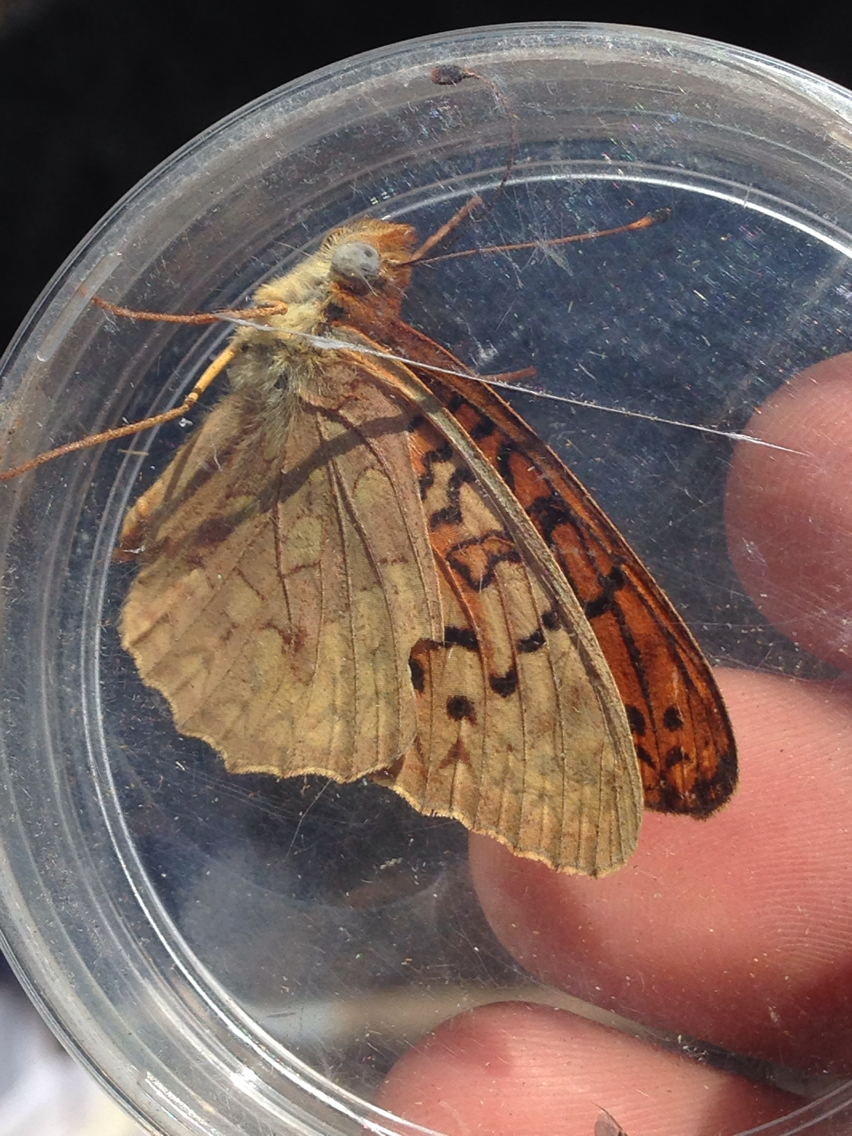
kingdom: Animalia
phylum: Arthropoda
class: Insecta
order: Lepidoptera
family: Nymphalidae
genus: Speyeria
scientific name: Speyeria adiaste
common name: Unsilvered fritillary
